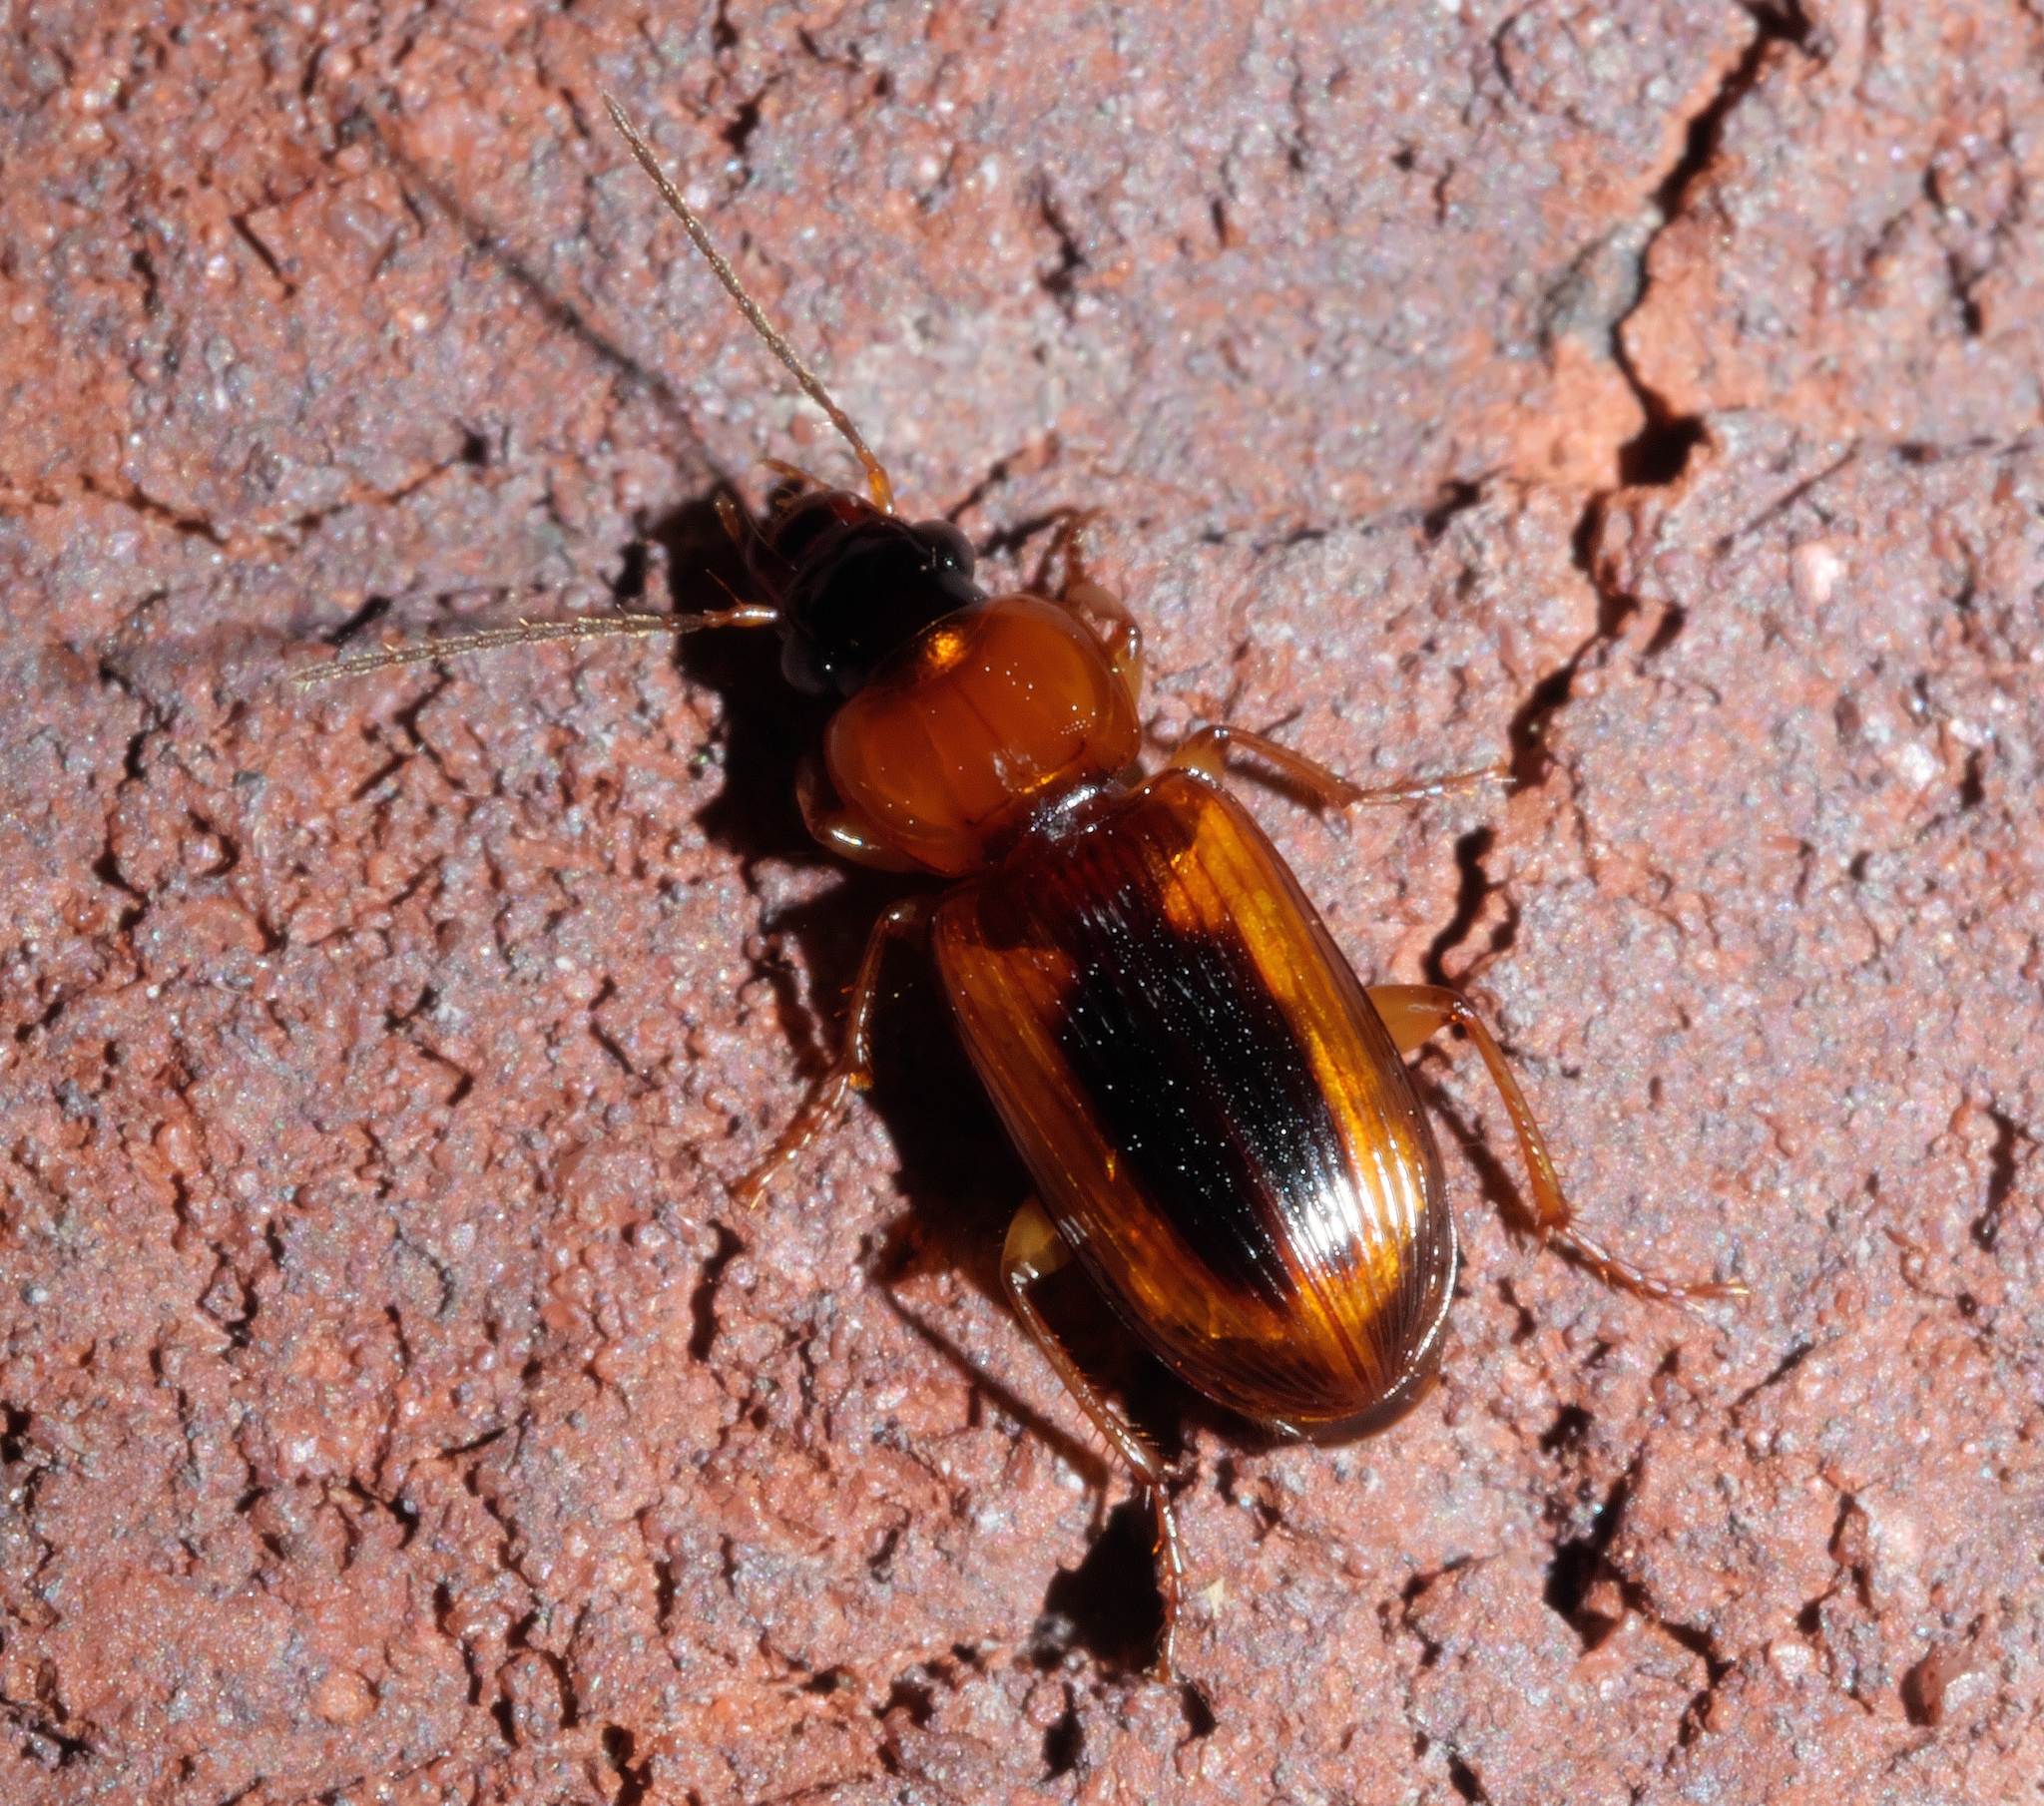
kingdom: Animalia
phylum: Arthropoda
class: Insecta
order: Coleoptera
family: Carabidae
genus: Stenolophus
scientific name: Stenolophus dissimilis
